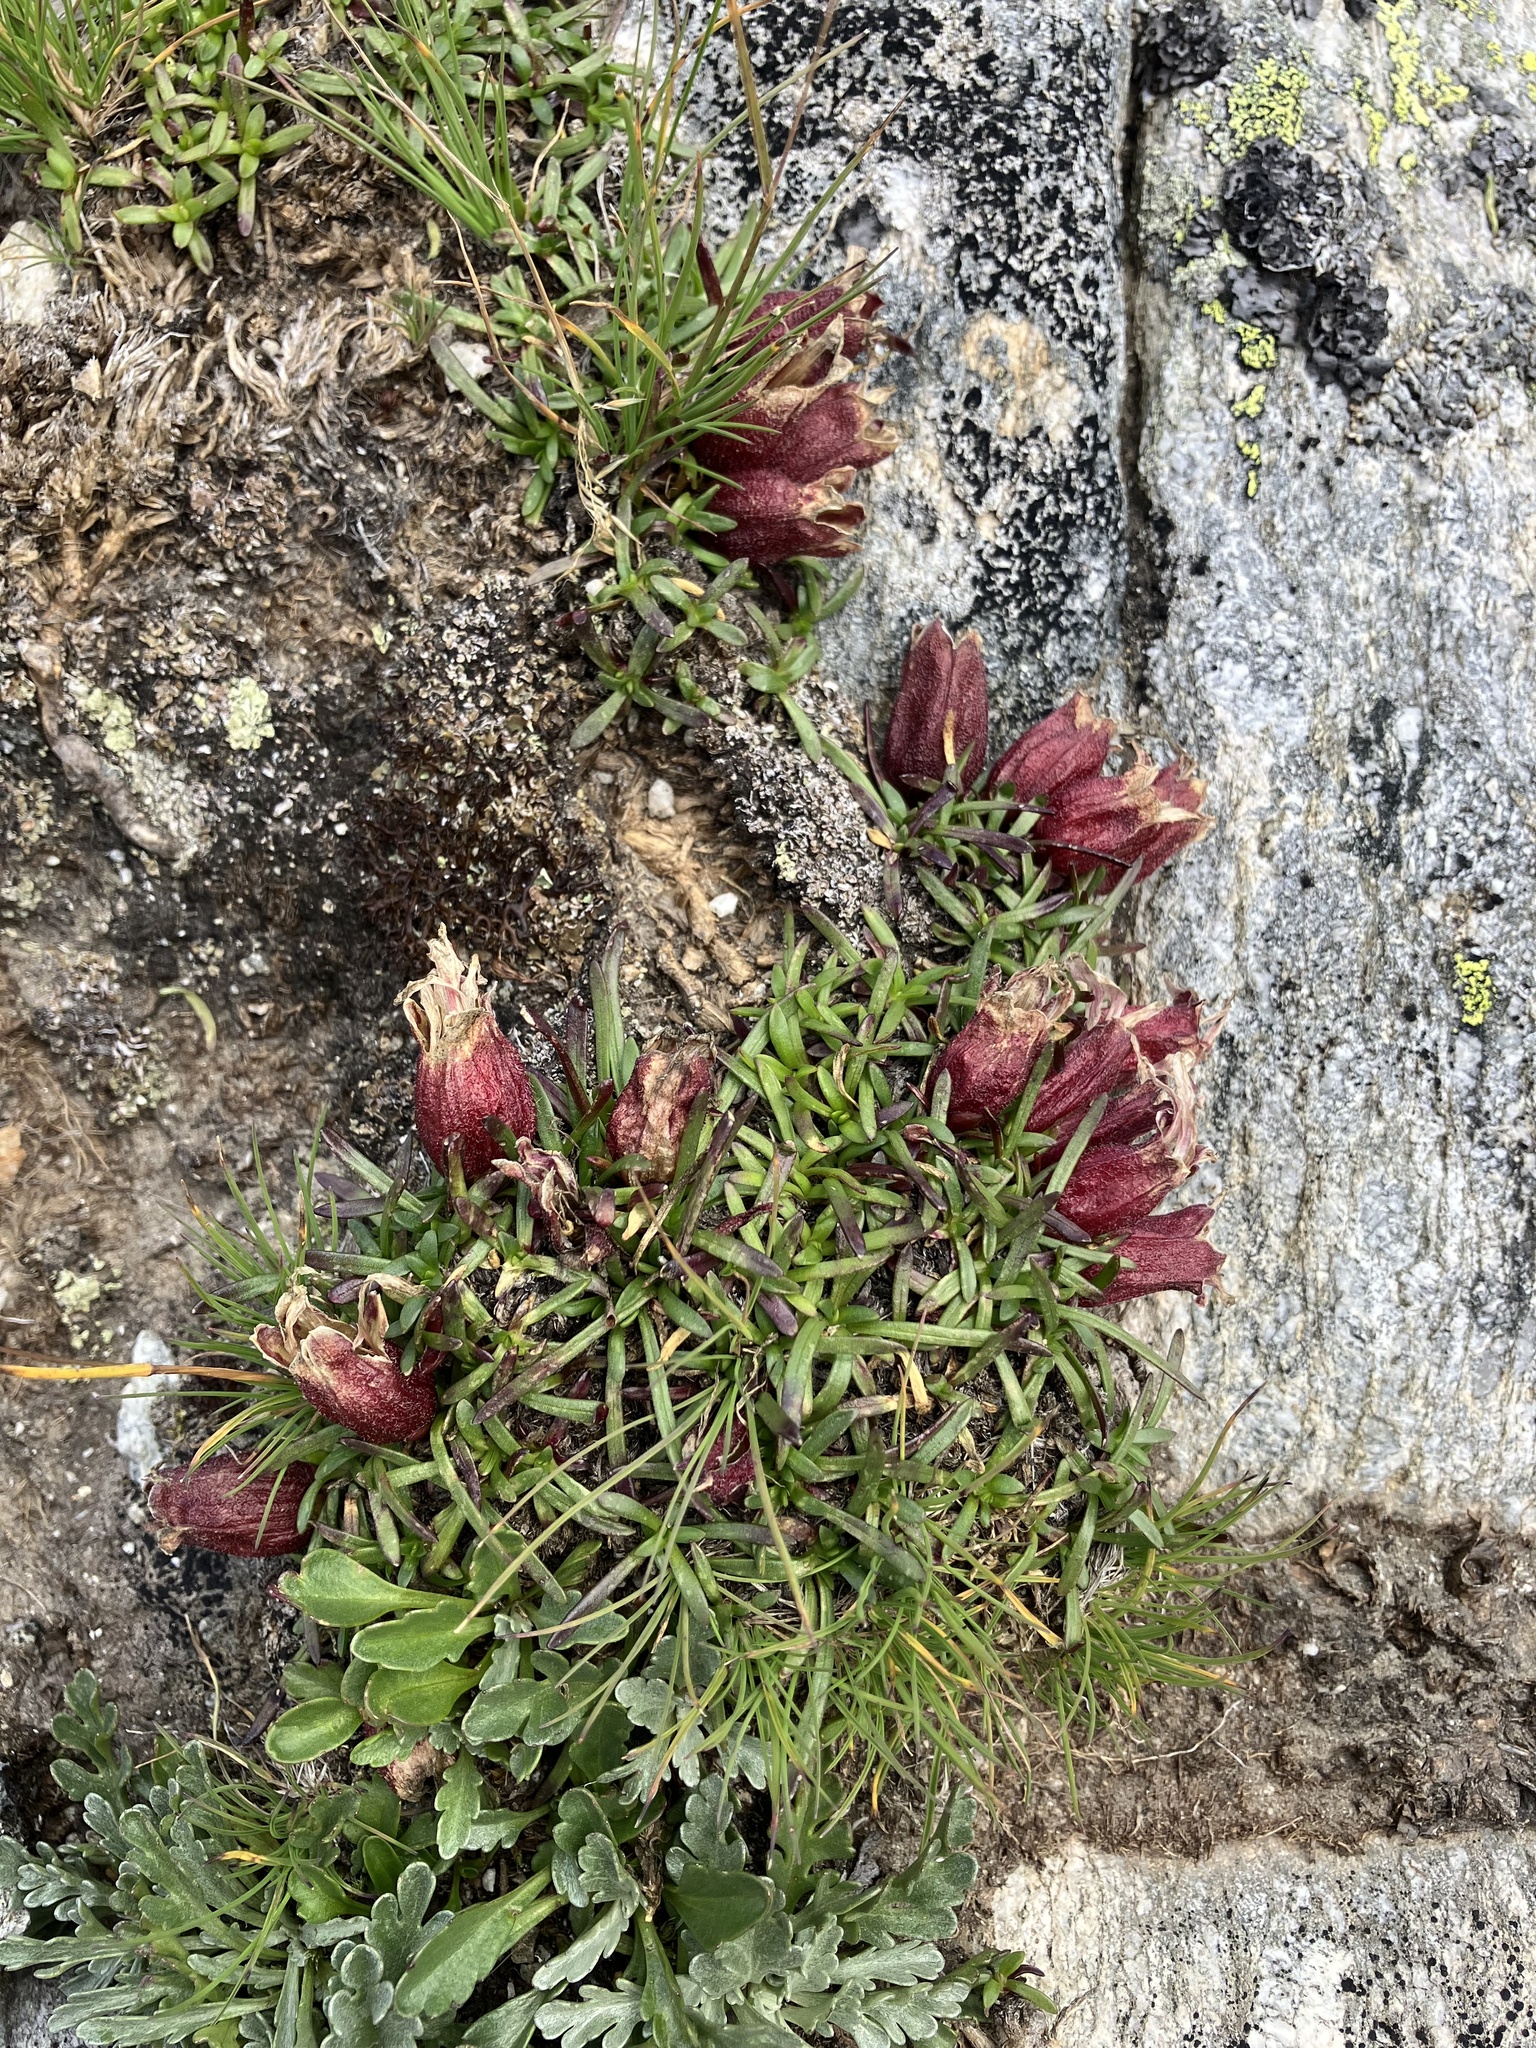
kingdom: Plantae
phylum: Tracheophyta
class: Magnoliopsida
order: Caryophyllales
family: Caryophyllaceae
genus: Saponaria
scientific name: Saponaria pumila
